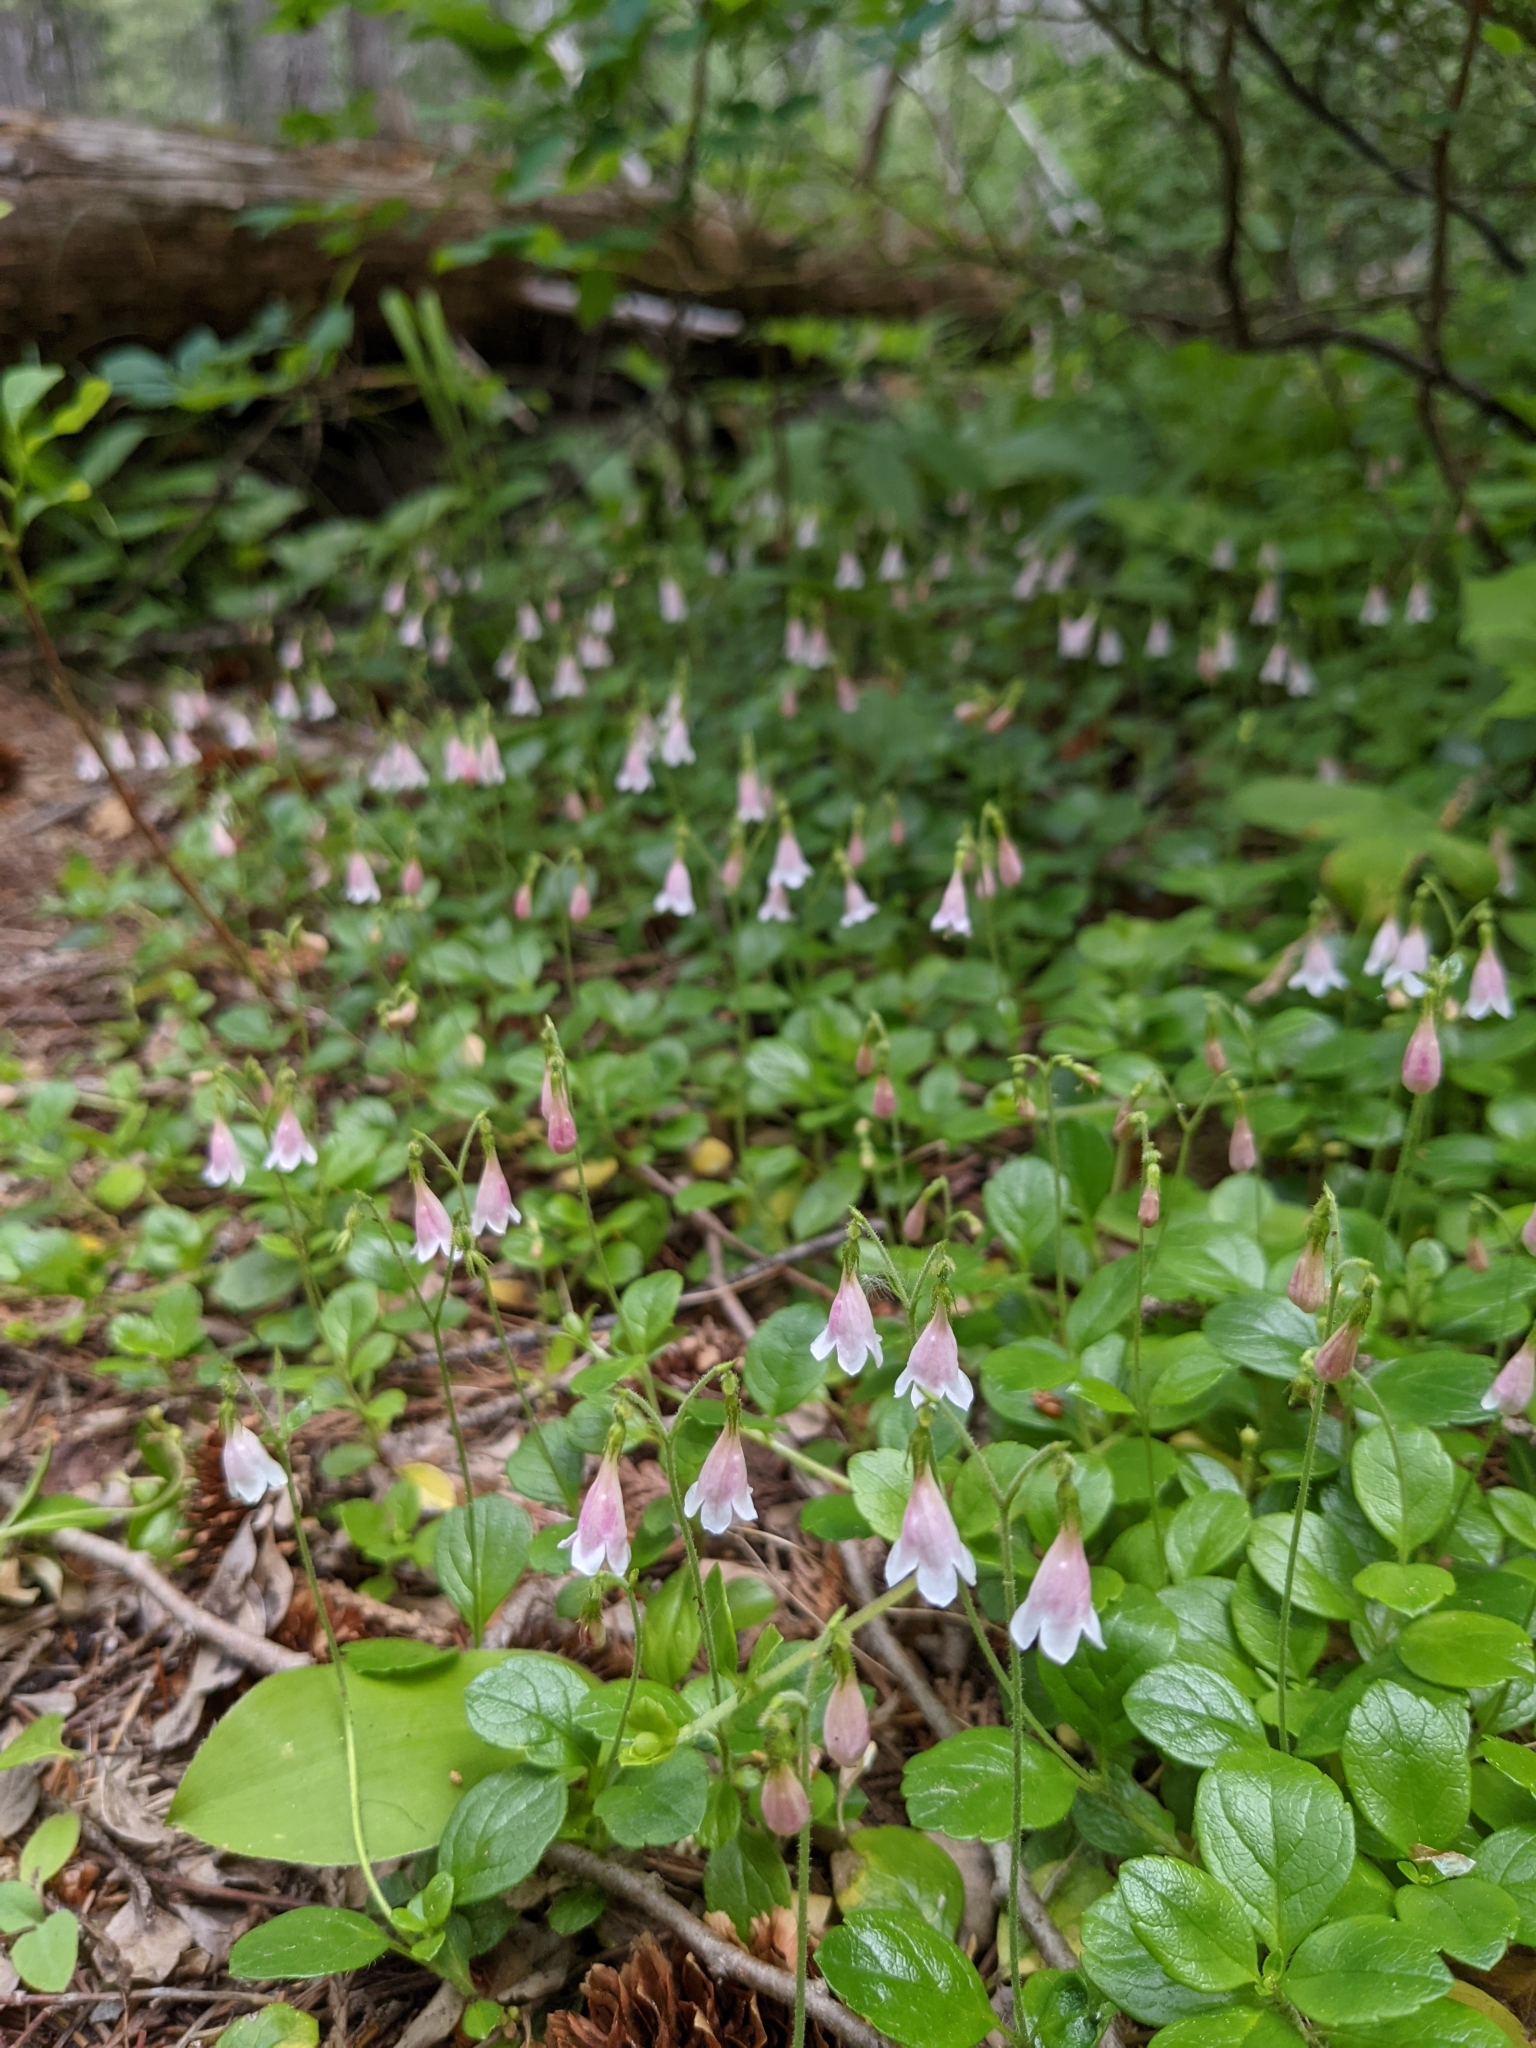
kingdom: Plantae
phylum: Tracheophyta
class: Magnoliopsida
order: Dipsacales
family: Caprifoliaceae
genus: Linnaea
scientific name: Linnaea borealis
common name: Twinflower
